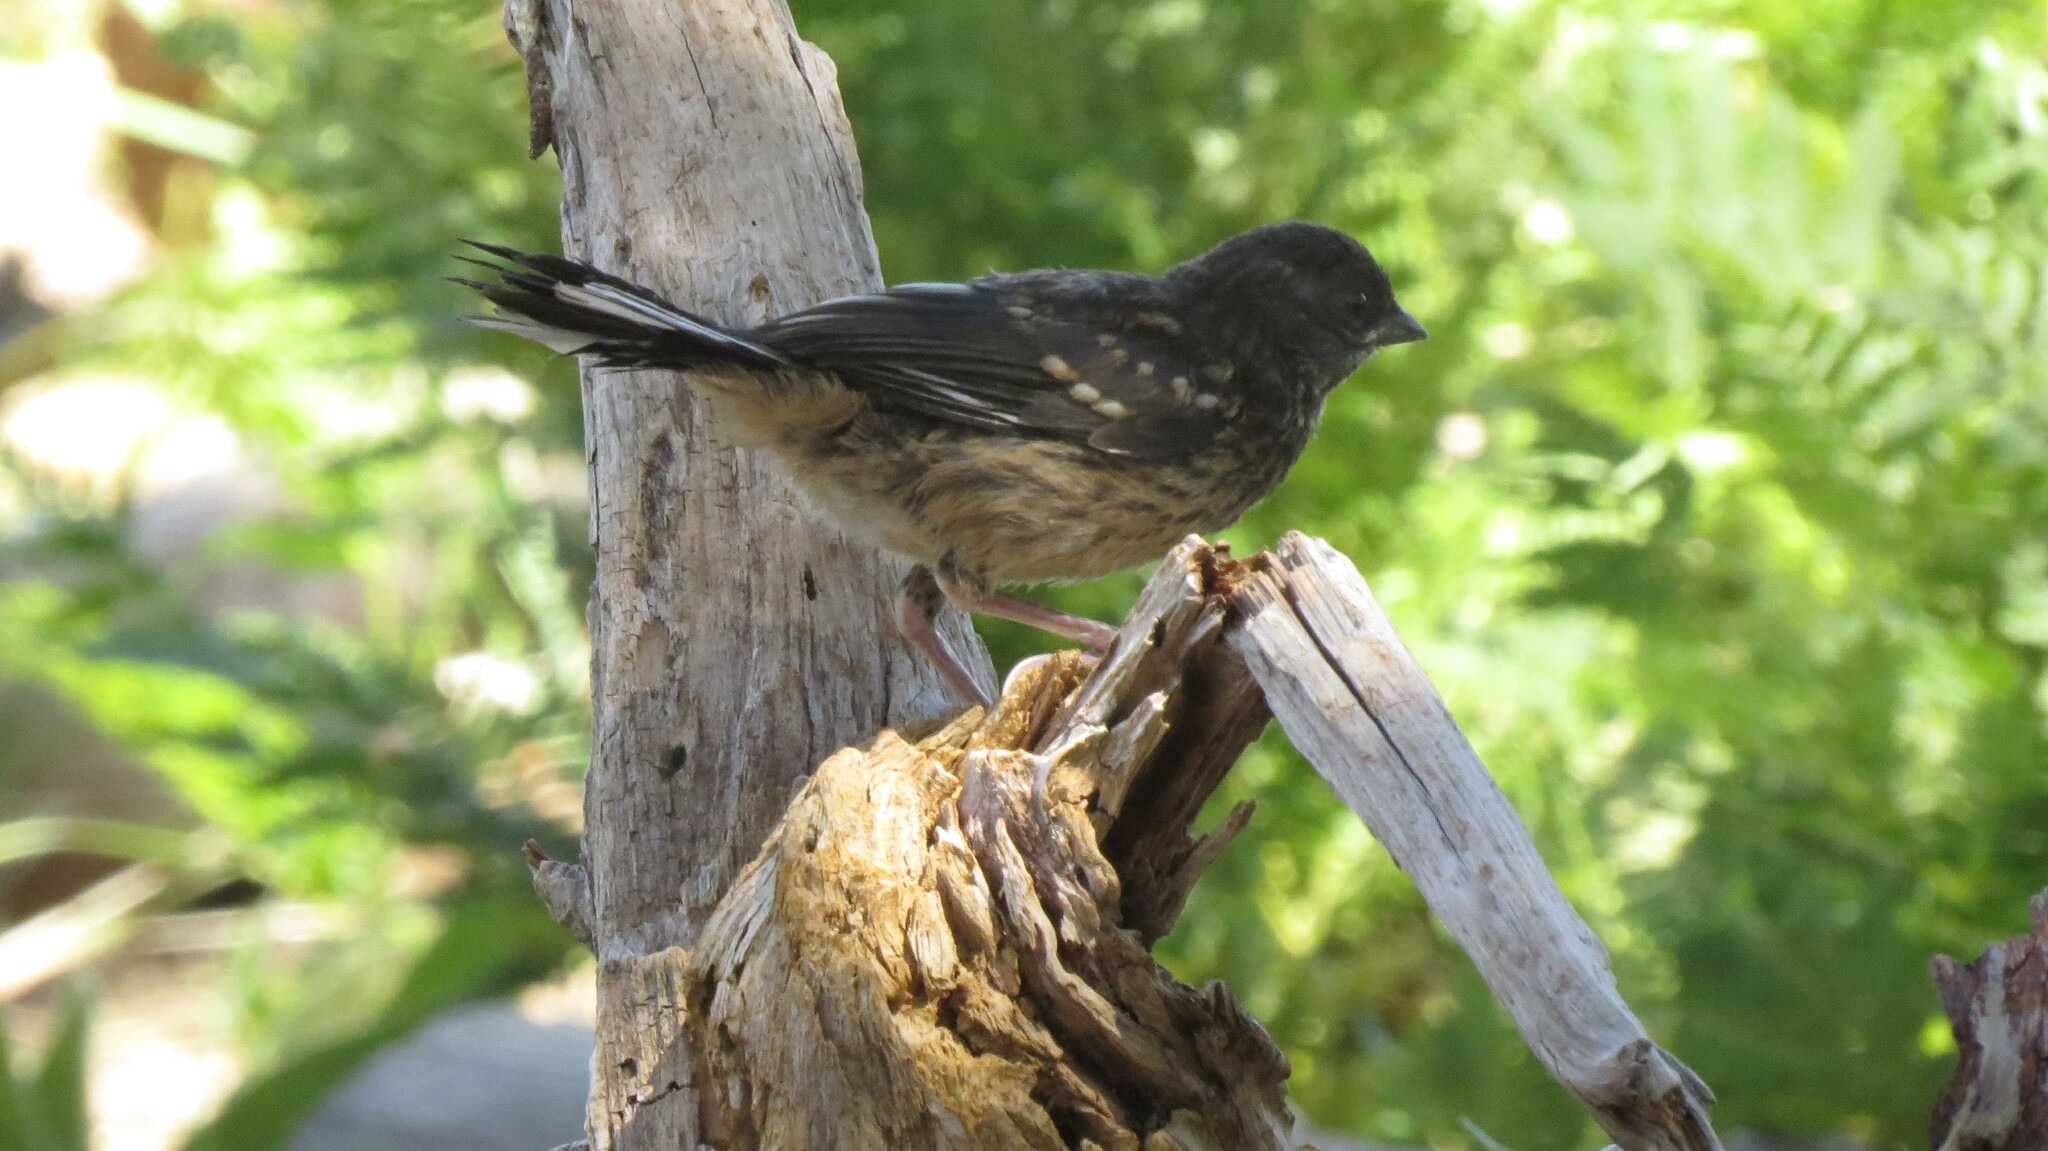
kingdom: Animalia
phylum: Chordata
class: Aves
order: Passeriformes
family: Passerellidae
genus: Pipilo
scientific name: Pipilo maculatus
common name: Spotted towhee
